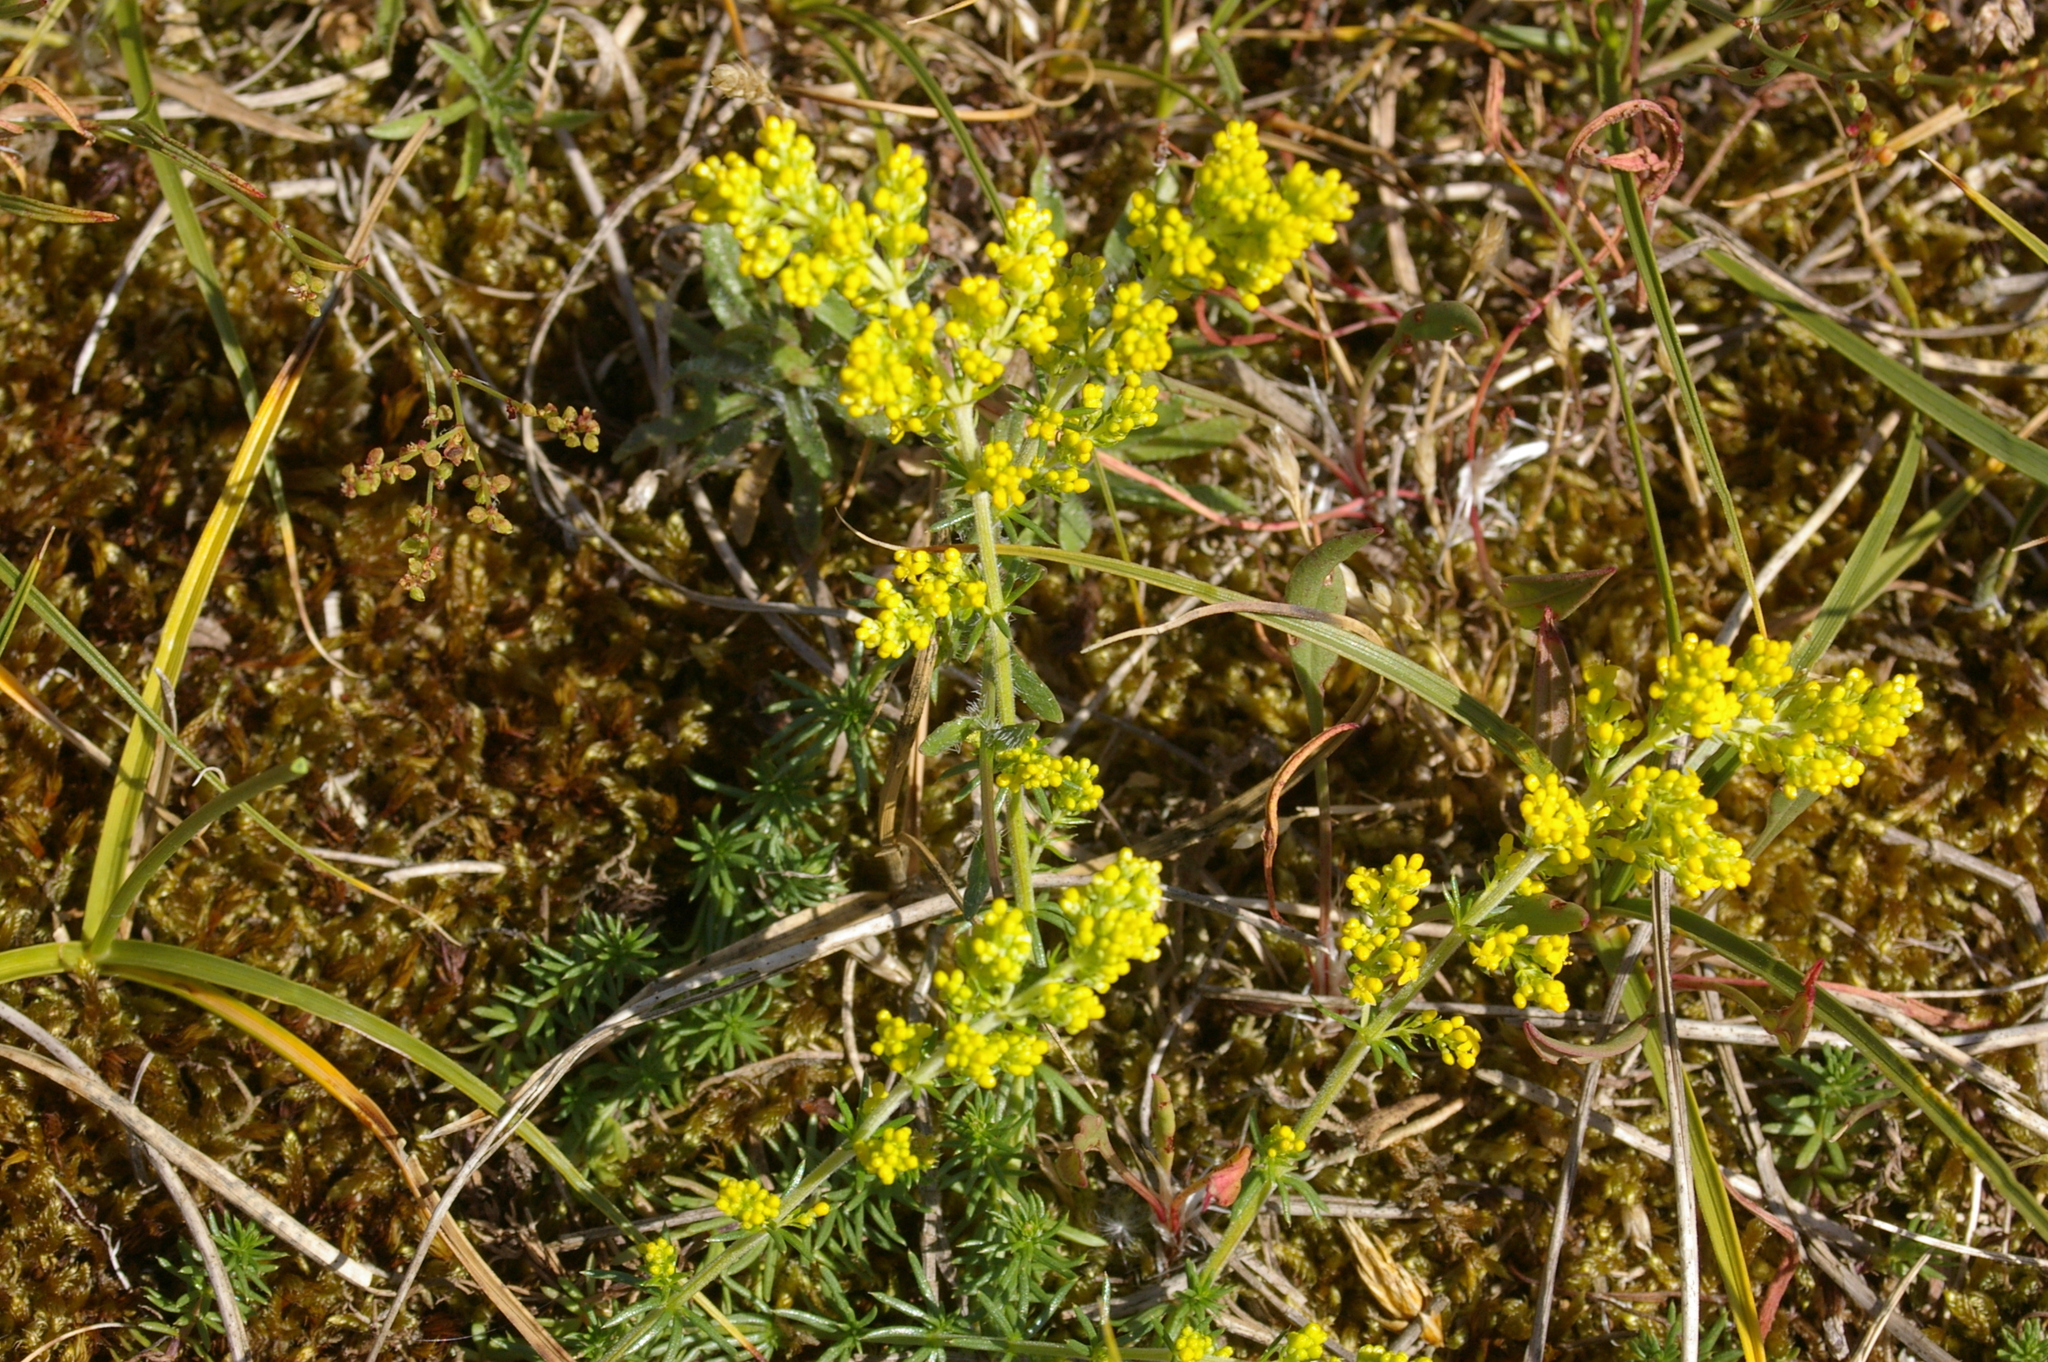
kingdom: Plantae
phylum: Tracheophyta
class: Magnoliopsida
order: Gentianales
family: Rubiaceae
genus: Galium
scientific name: Galium verum
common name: Lady's bedstraw
